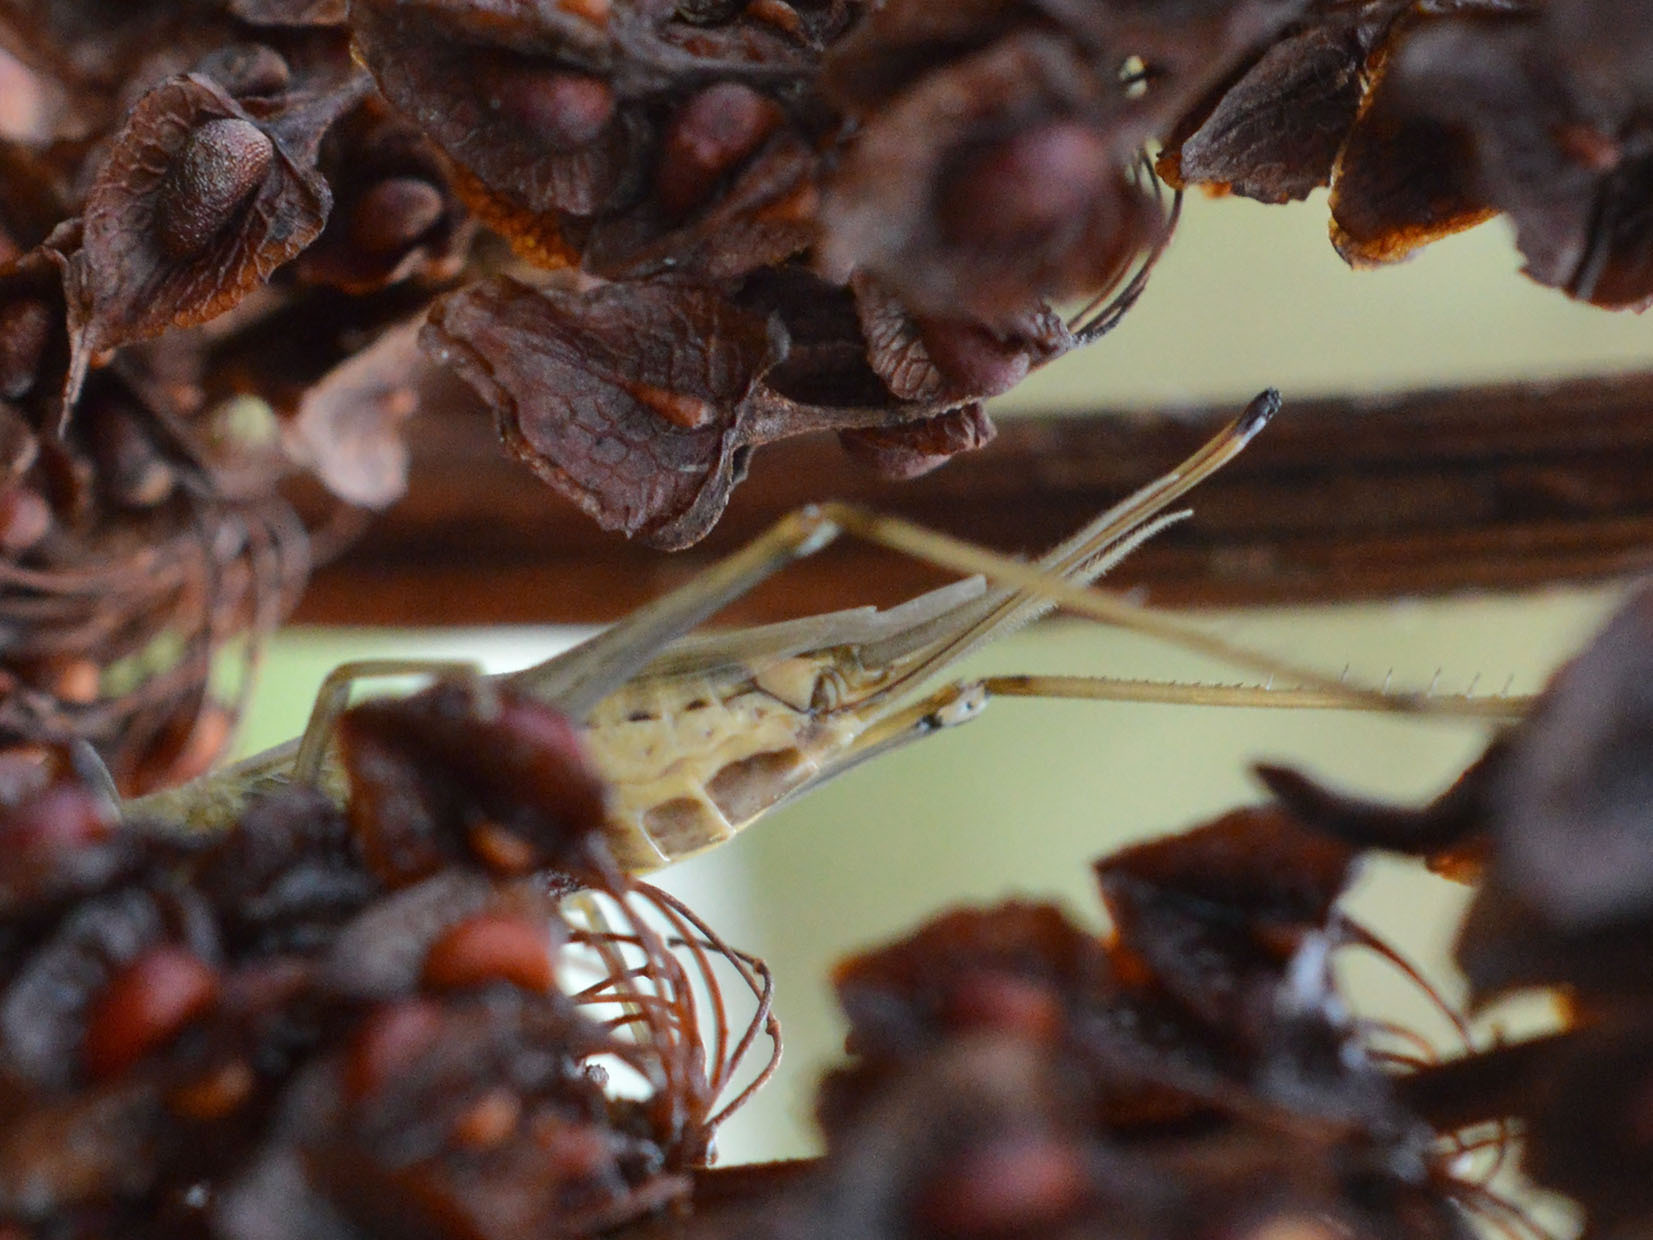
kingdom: Animalia
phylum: Arthropoda
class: Insecta
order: Orthoptera
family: Gryllidae
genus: Oecanthus
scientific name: Oecanthus pellucens
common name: Tree-cricket
